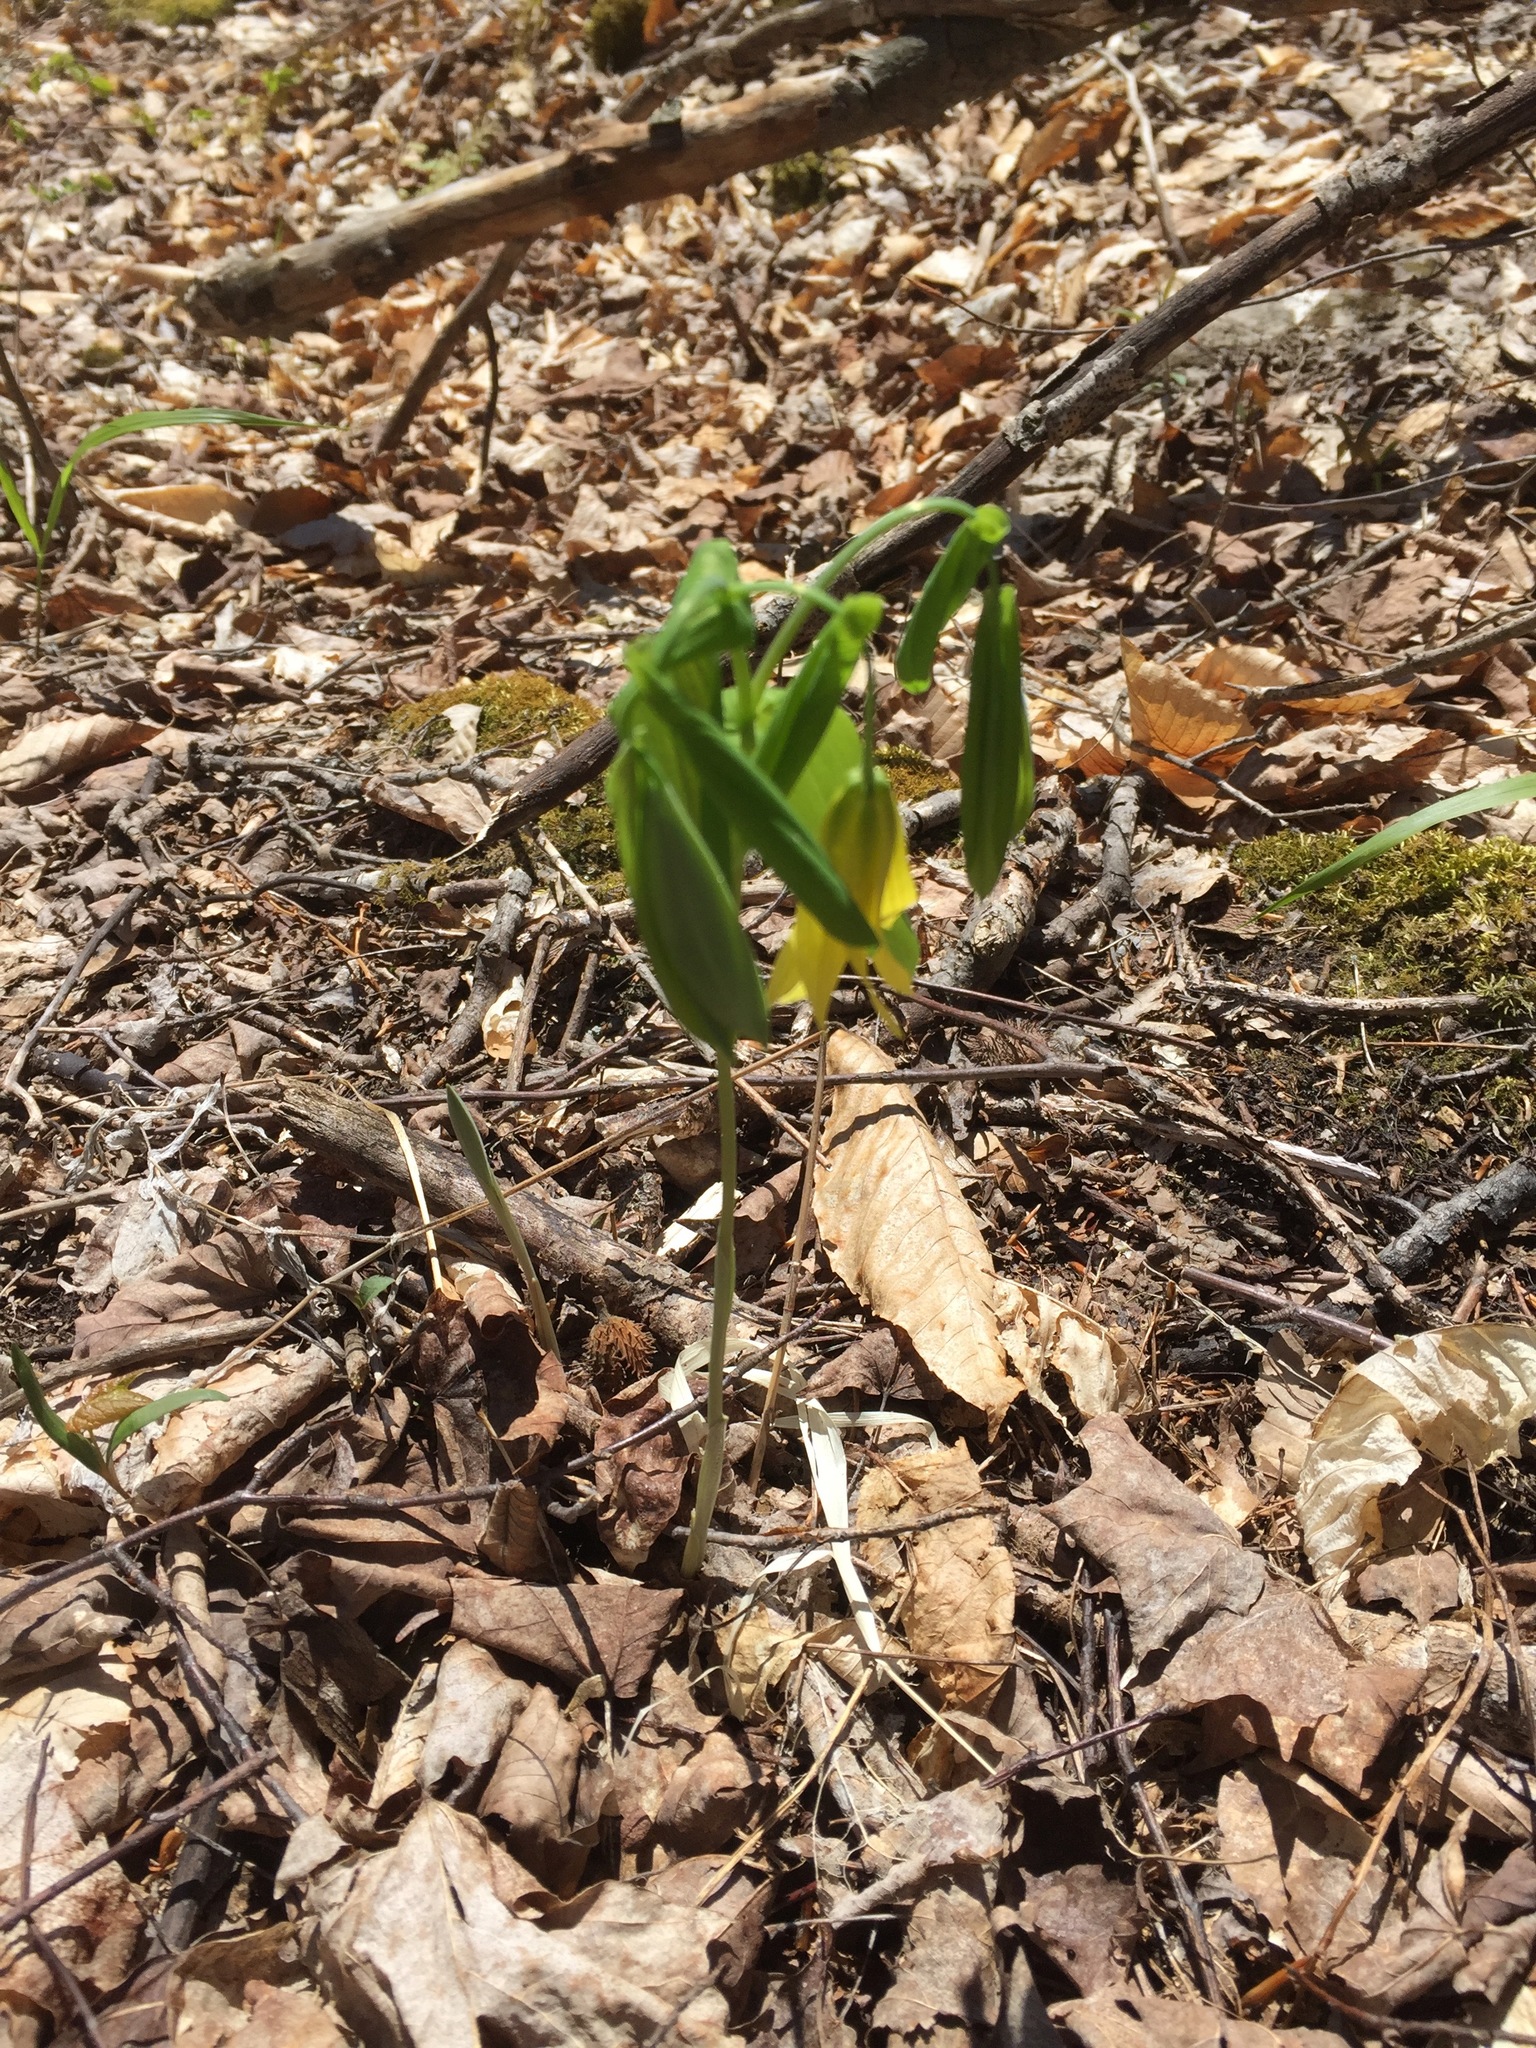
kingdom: Plantae
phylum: Tracheophyta
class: Liliopsida
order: Liliales
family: Colchicaceae
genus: Uvularia
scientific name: Uvularia grandiflora
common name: Bellwort
